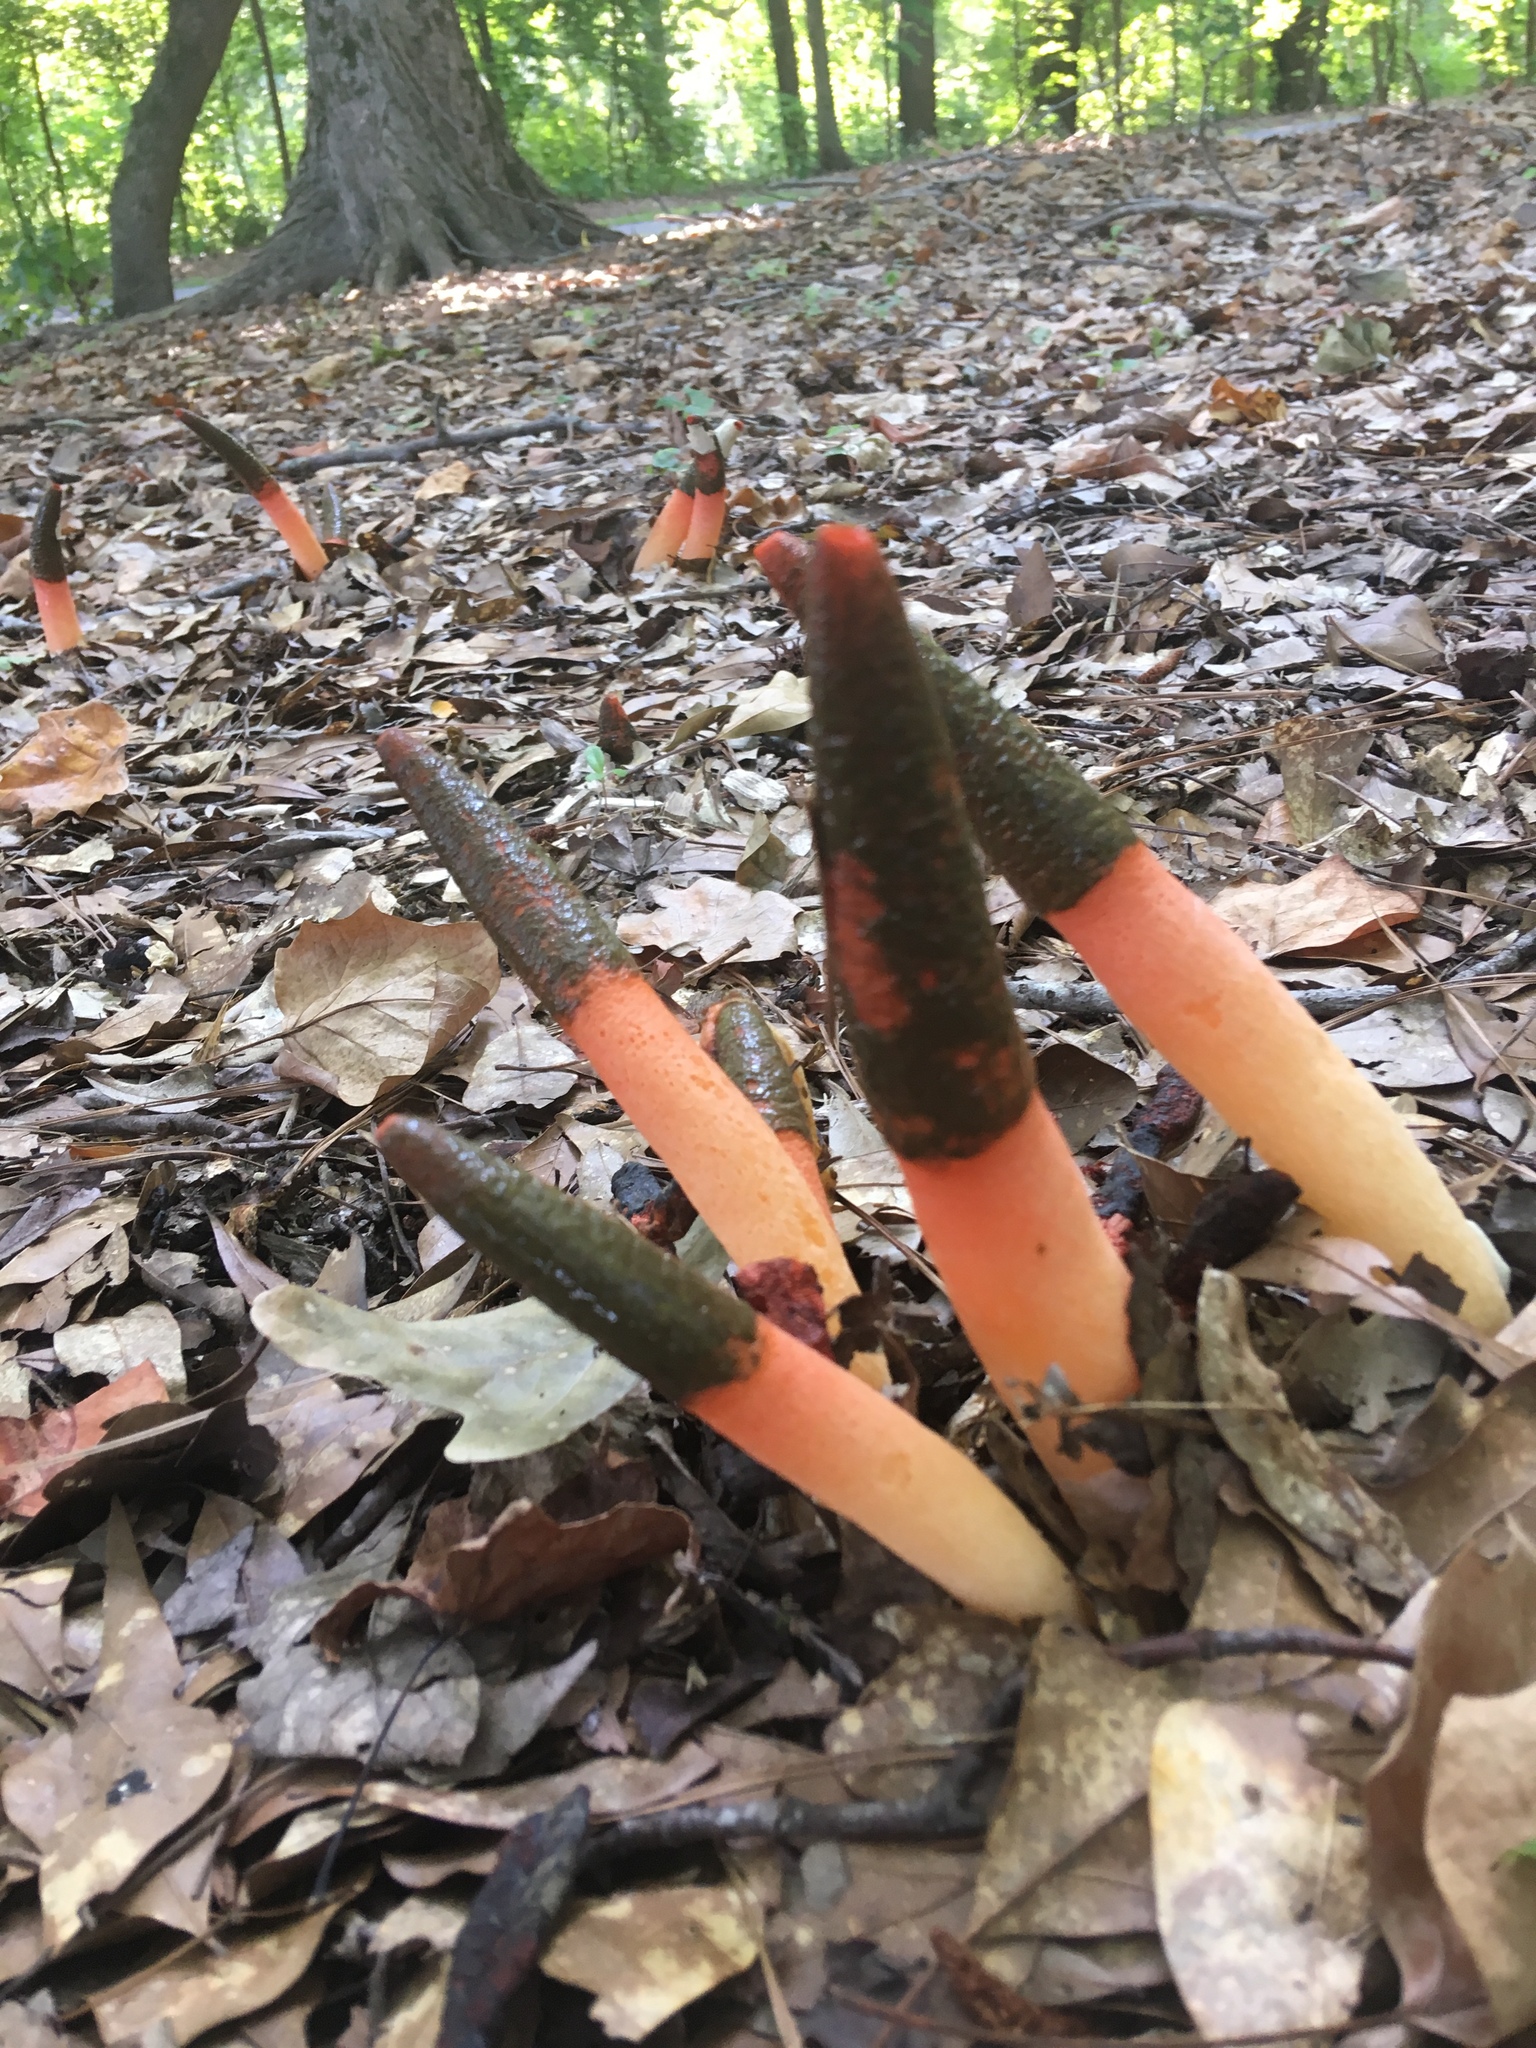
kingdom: Fungi
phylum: Basidiomycota
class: Agaricomycetes
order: Phallales
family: Phallaceae
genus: Mutinus
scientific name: Mutinus elegans
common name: Devil's dipstick
